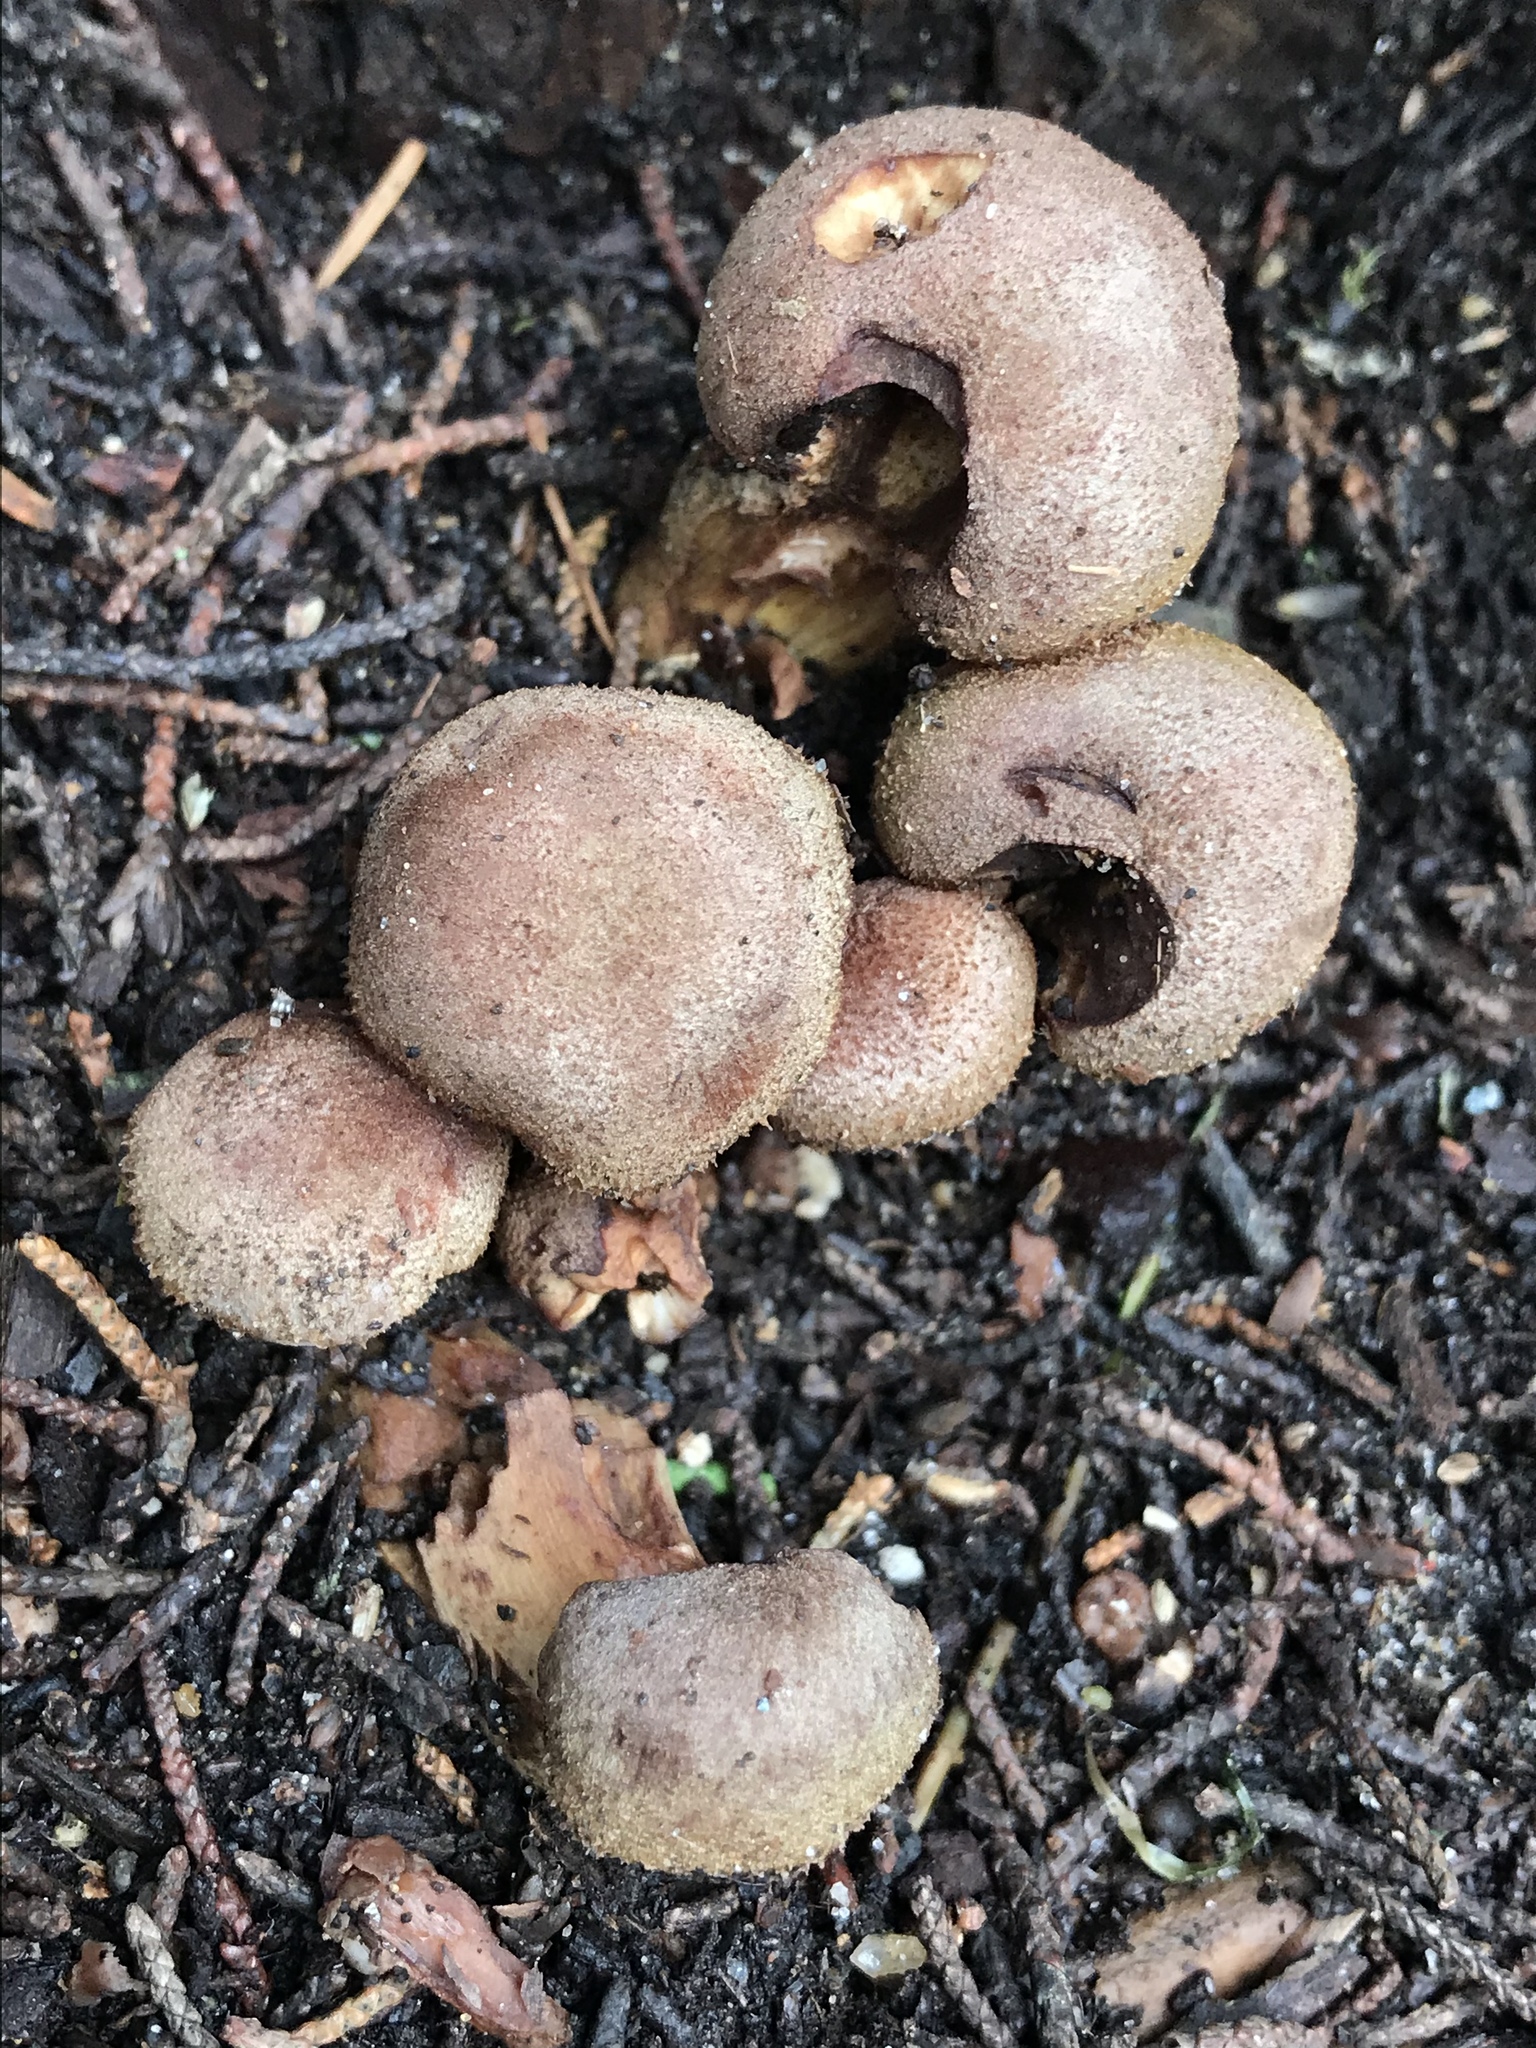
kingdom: Fungi
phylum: Basidiomycota
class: Agaricomycetes
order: Agaricales
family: Physalacriaceae
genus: Armillaria
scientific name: Armillaria sinapina
